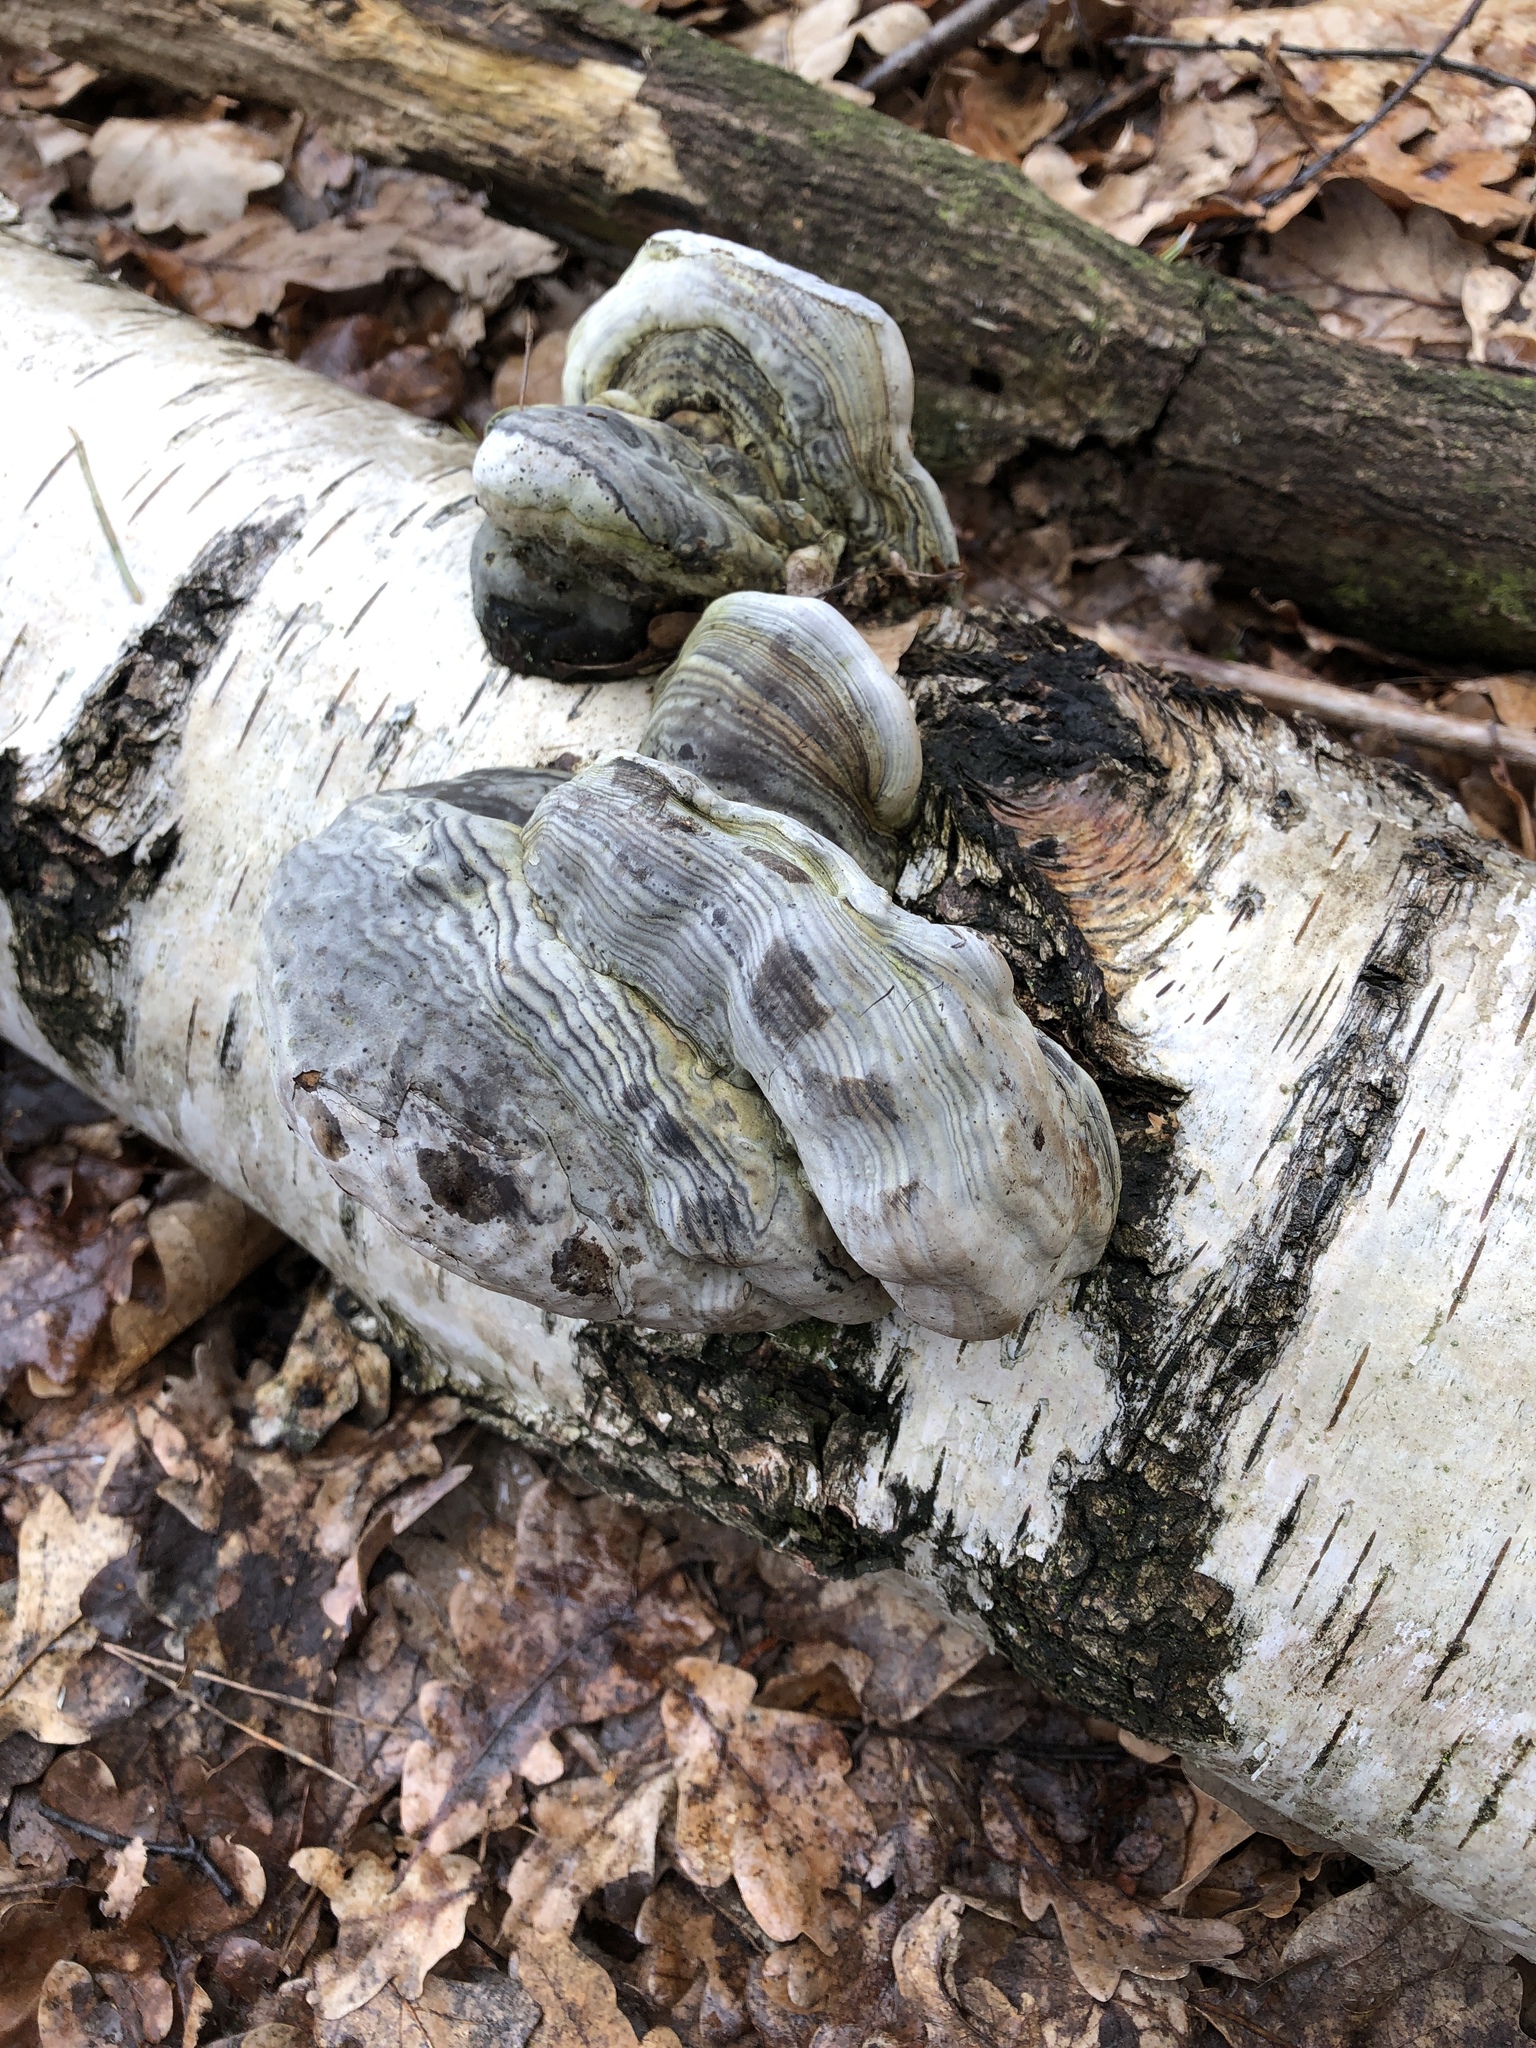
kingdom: Fungi
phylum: Basidiomycota
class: Agaricomycetes
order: Polyporales
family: Polyporaceae
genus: Fomes
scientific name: Fomes fomentarius
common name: Hoof fungus
